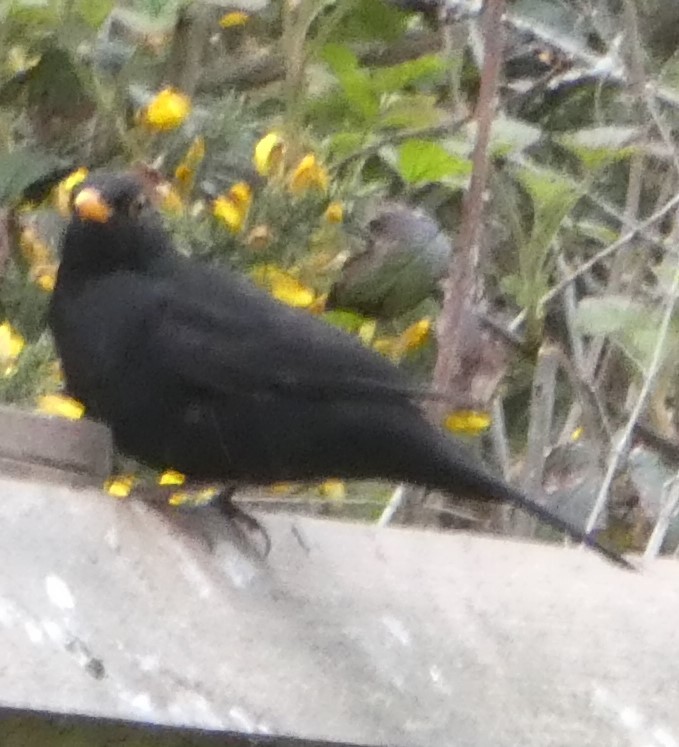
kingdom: Animalia
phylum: Chordata
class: Aves
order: Passeriformes
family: Turdidae
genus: Turdus
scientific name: Turdus merula
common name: Common blackbird
